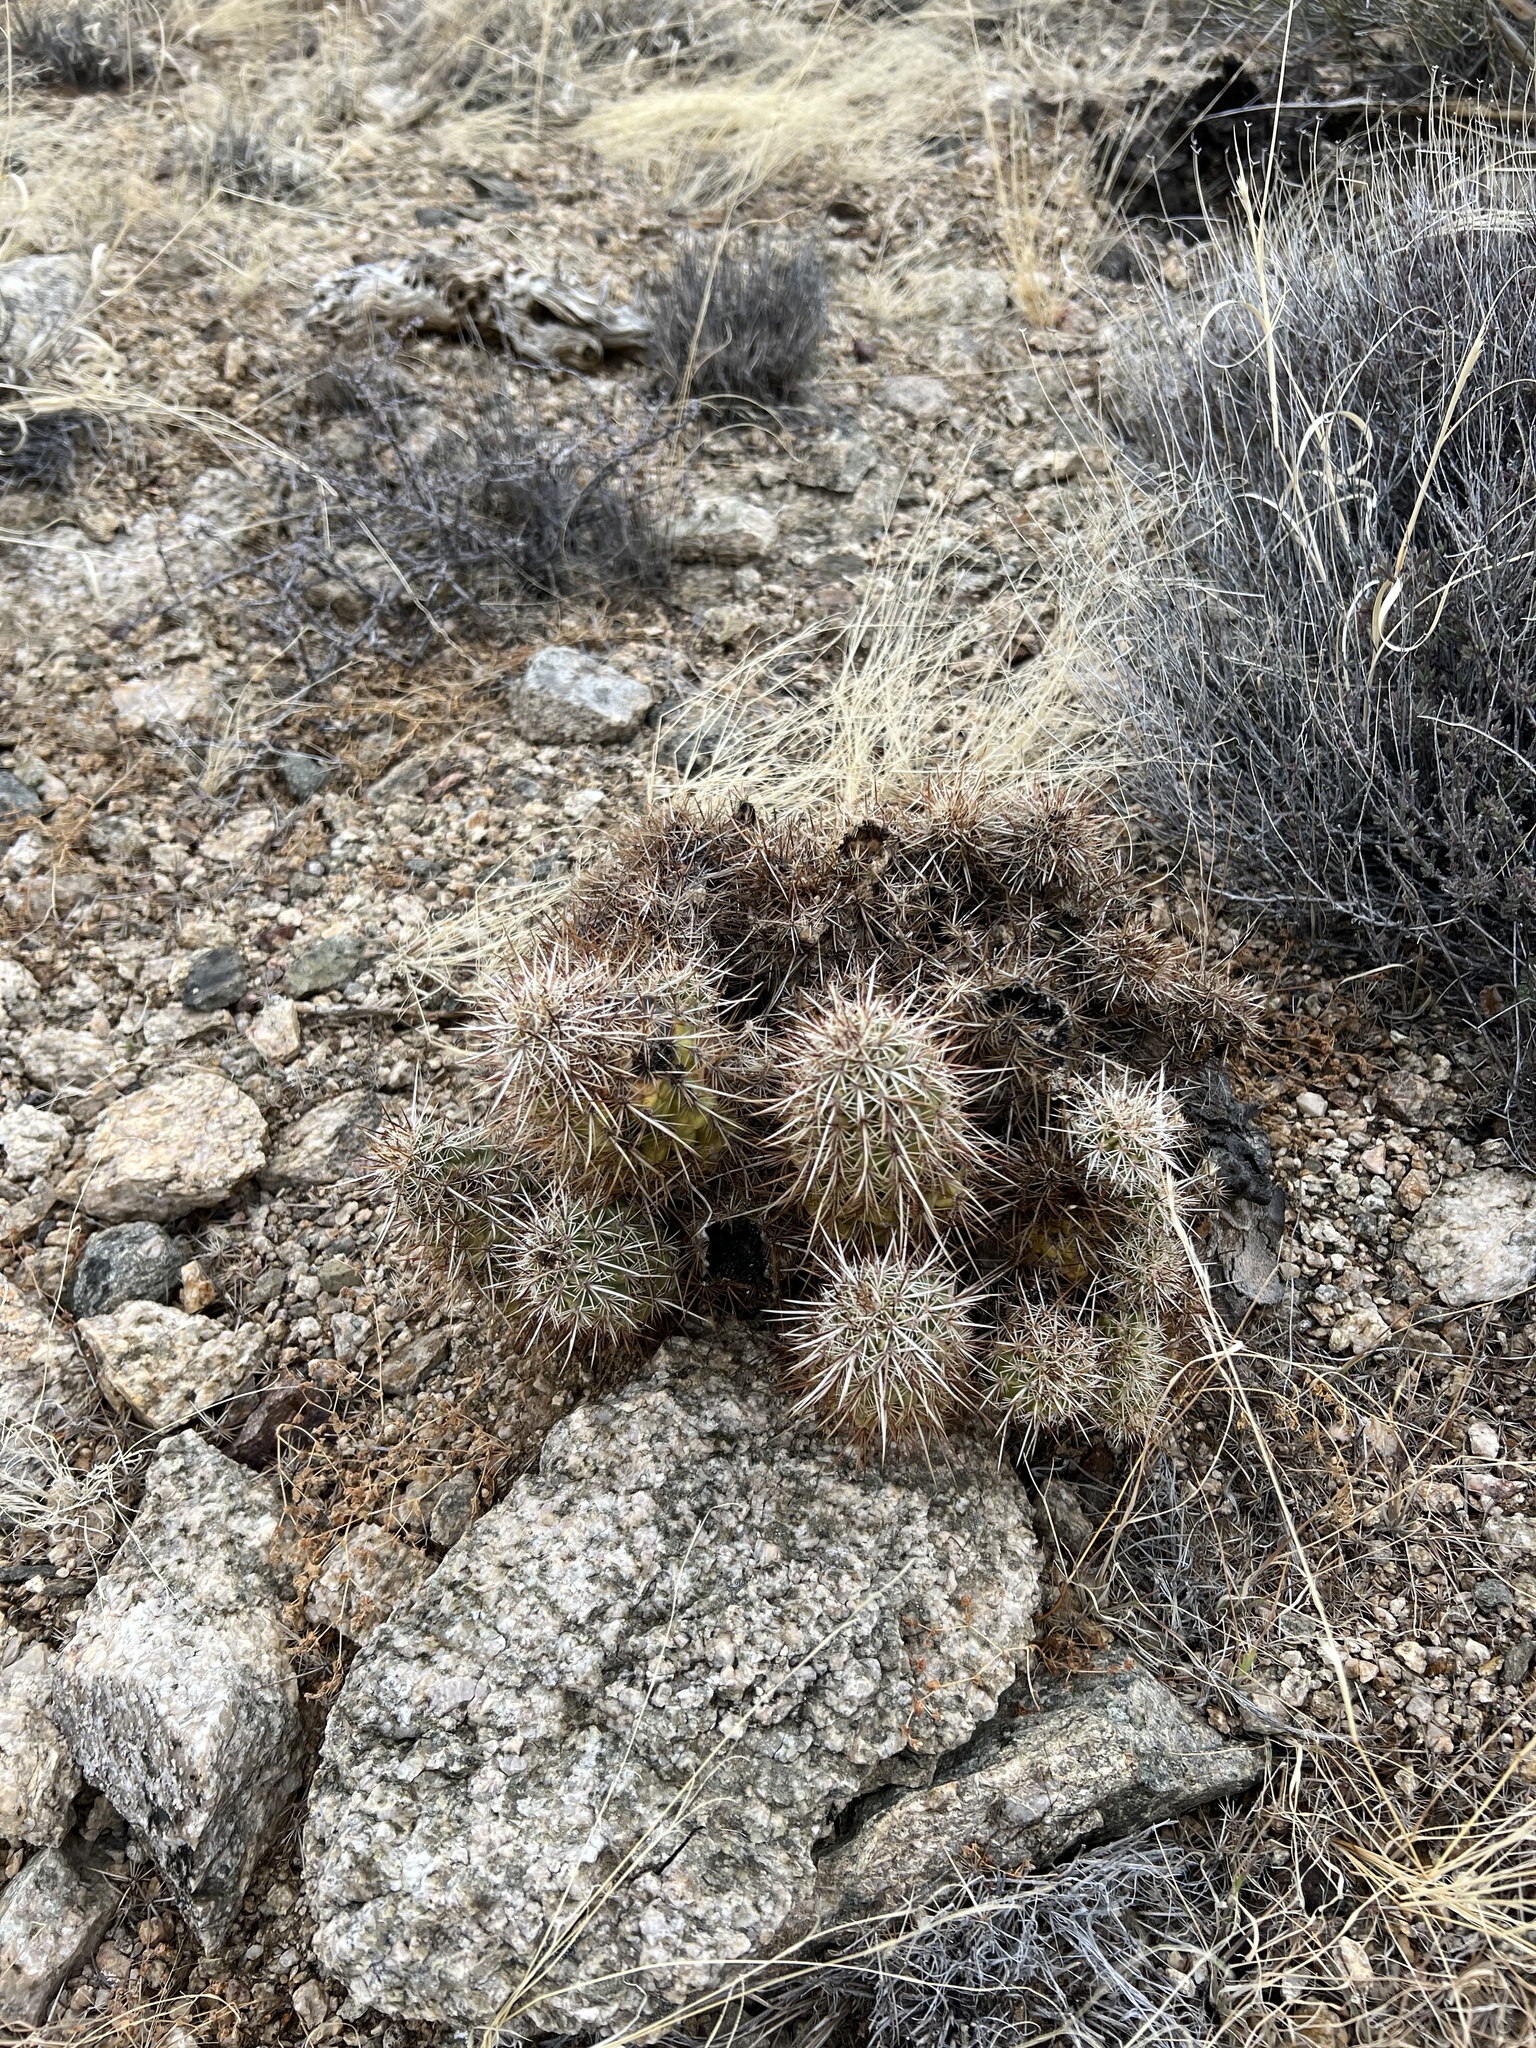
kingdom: Plantae
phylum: Tracheophyta
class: Magnoliopsida
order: Caryophyllales
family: Cactaceae
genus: Echinocereus
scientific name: Echinocereus engelmannii
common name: Engelmann's hedgehog cactus
